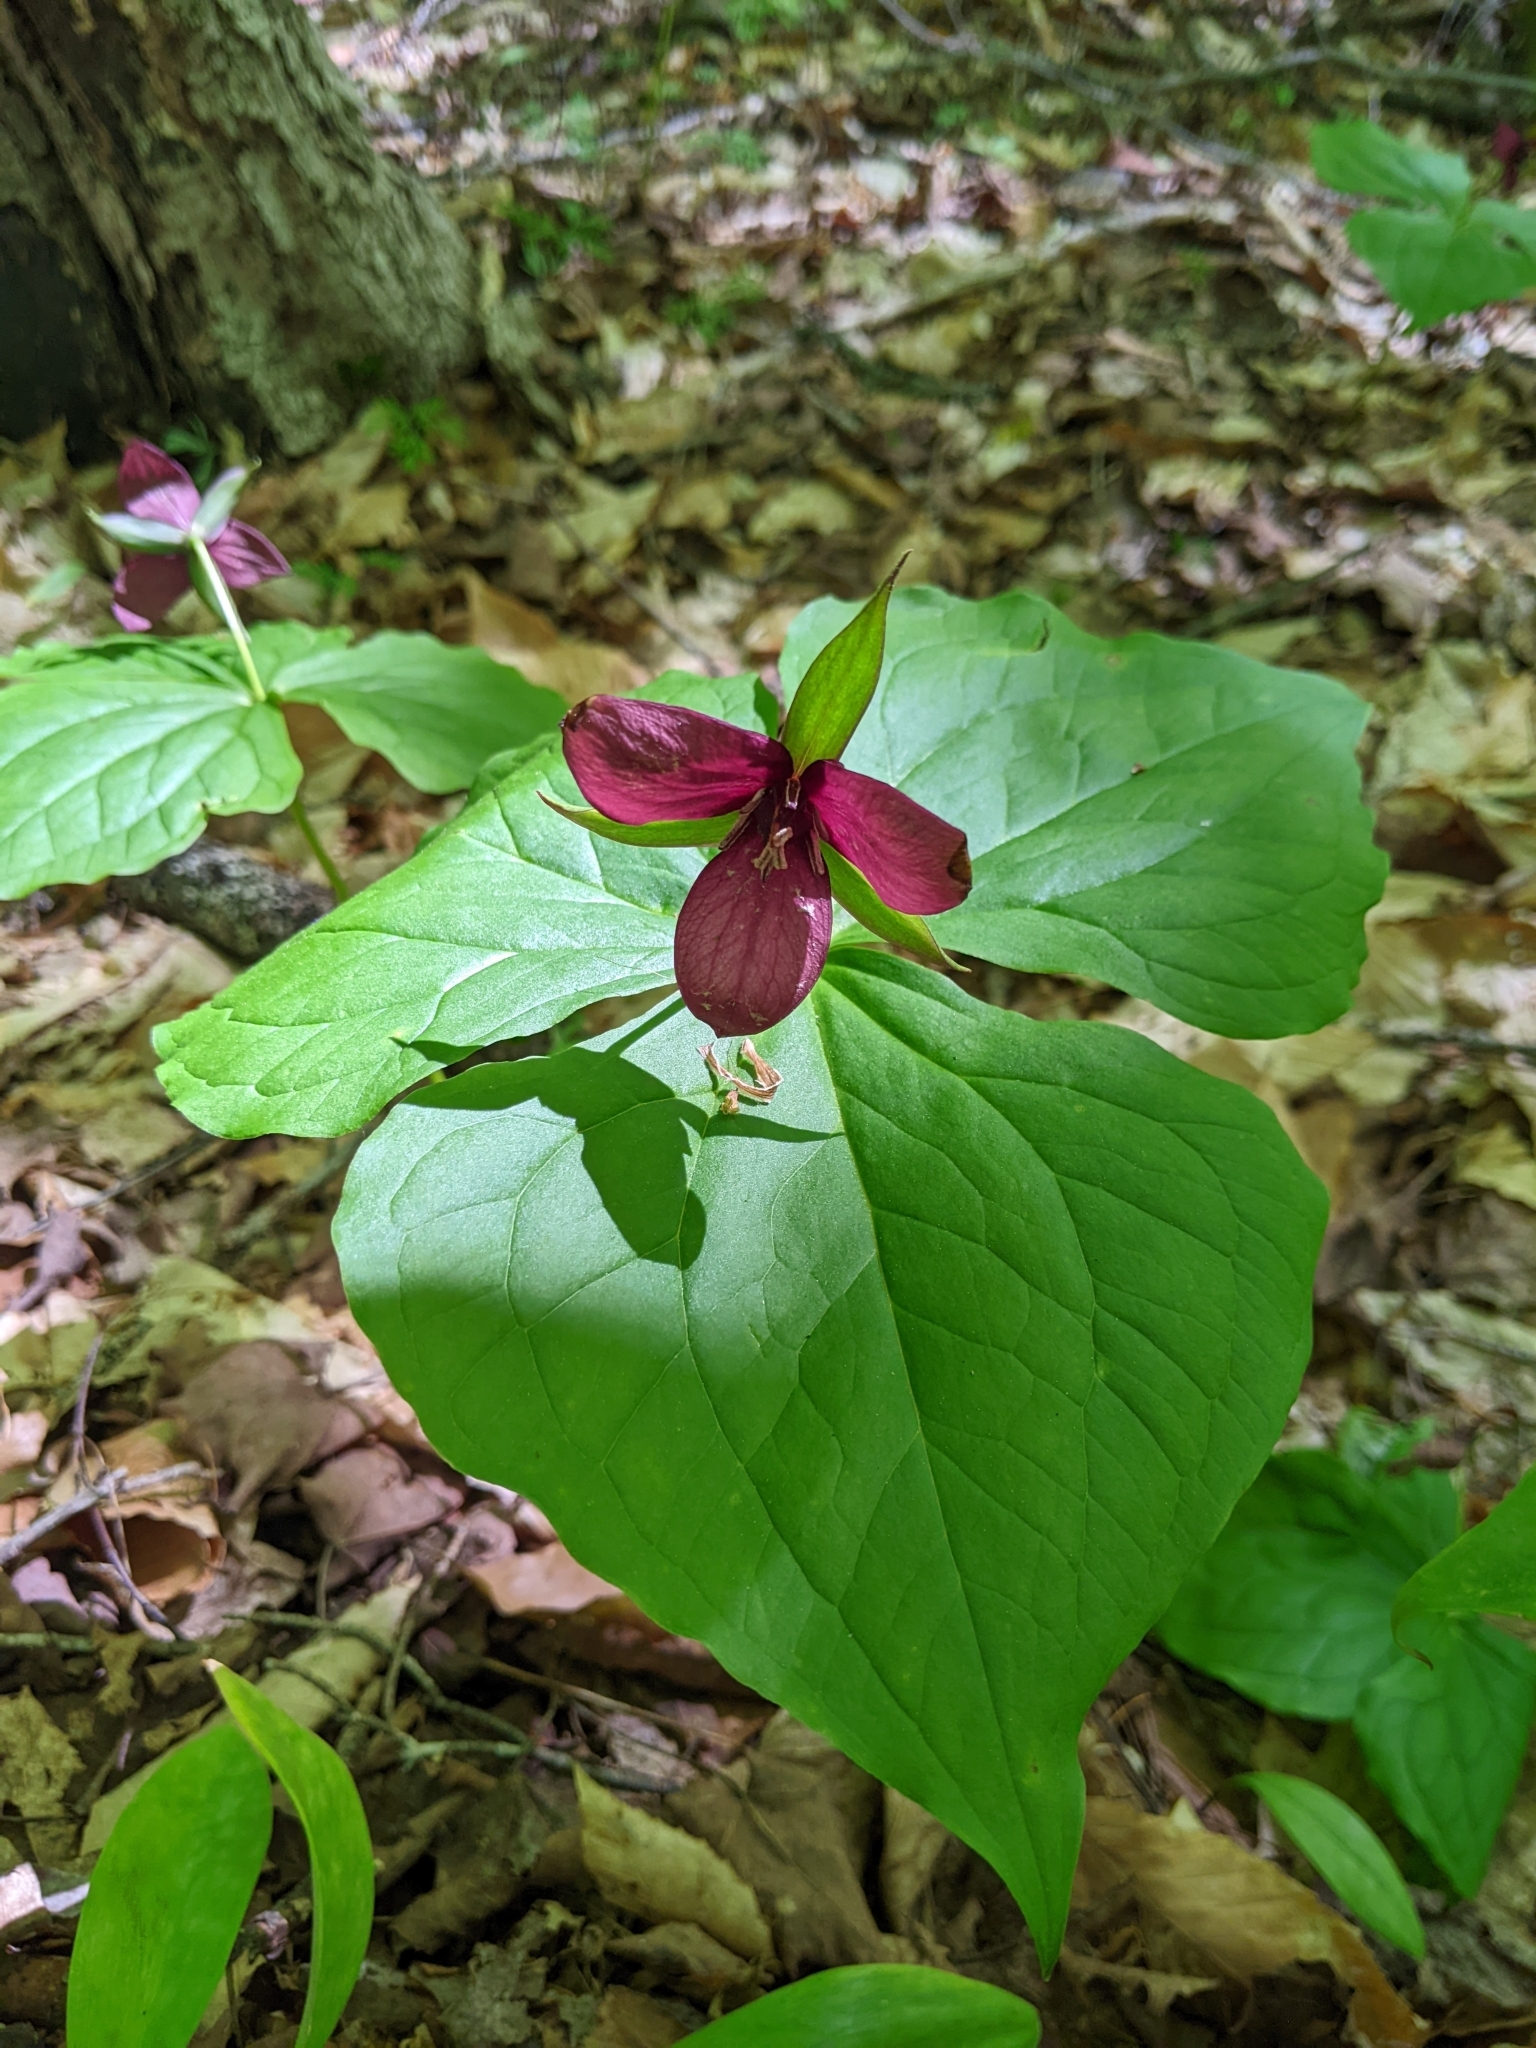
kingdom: Plantae
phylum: Tracheophyta
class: Liliopsida
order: Liliales
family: Melanthiaceae
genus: Trillium
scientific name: Trillium erectum
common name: Purple trillium
